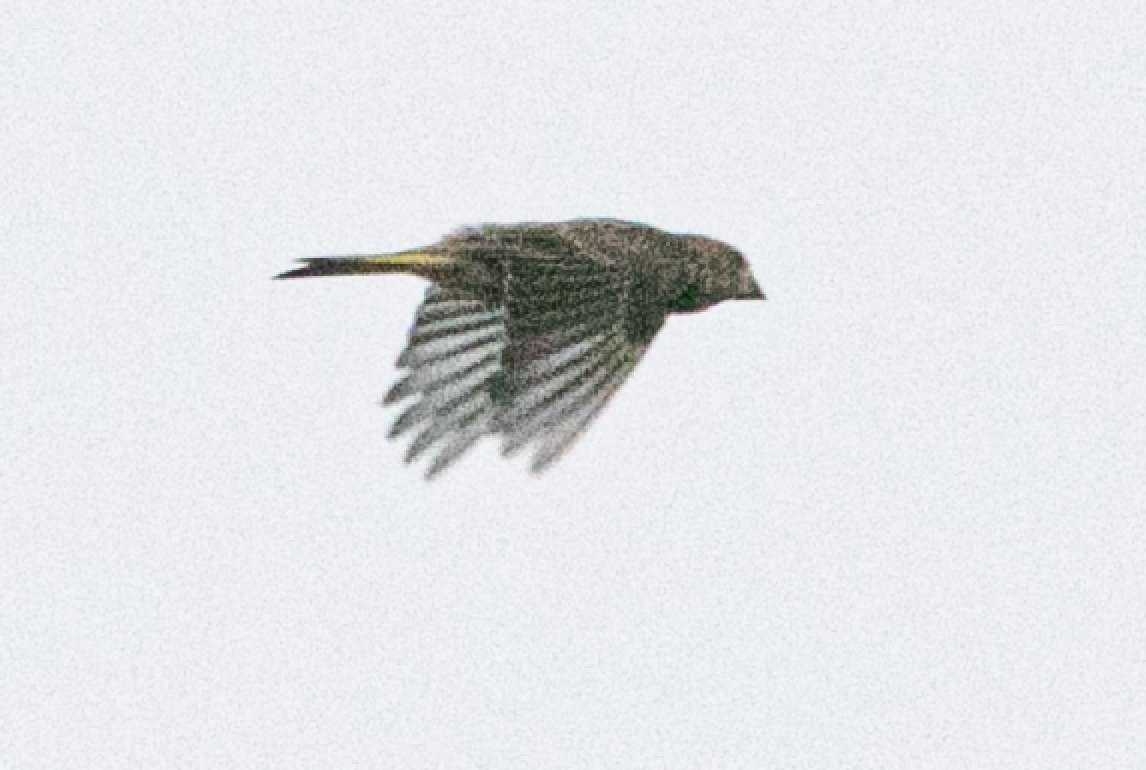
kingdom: Plantae
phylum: Tracheophyta
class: Liliopsida
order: Poales
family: Poaceae
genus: Chloris
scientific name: Chloris chloris
